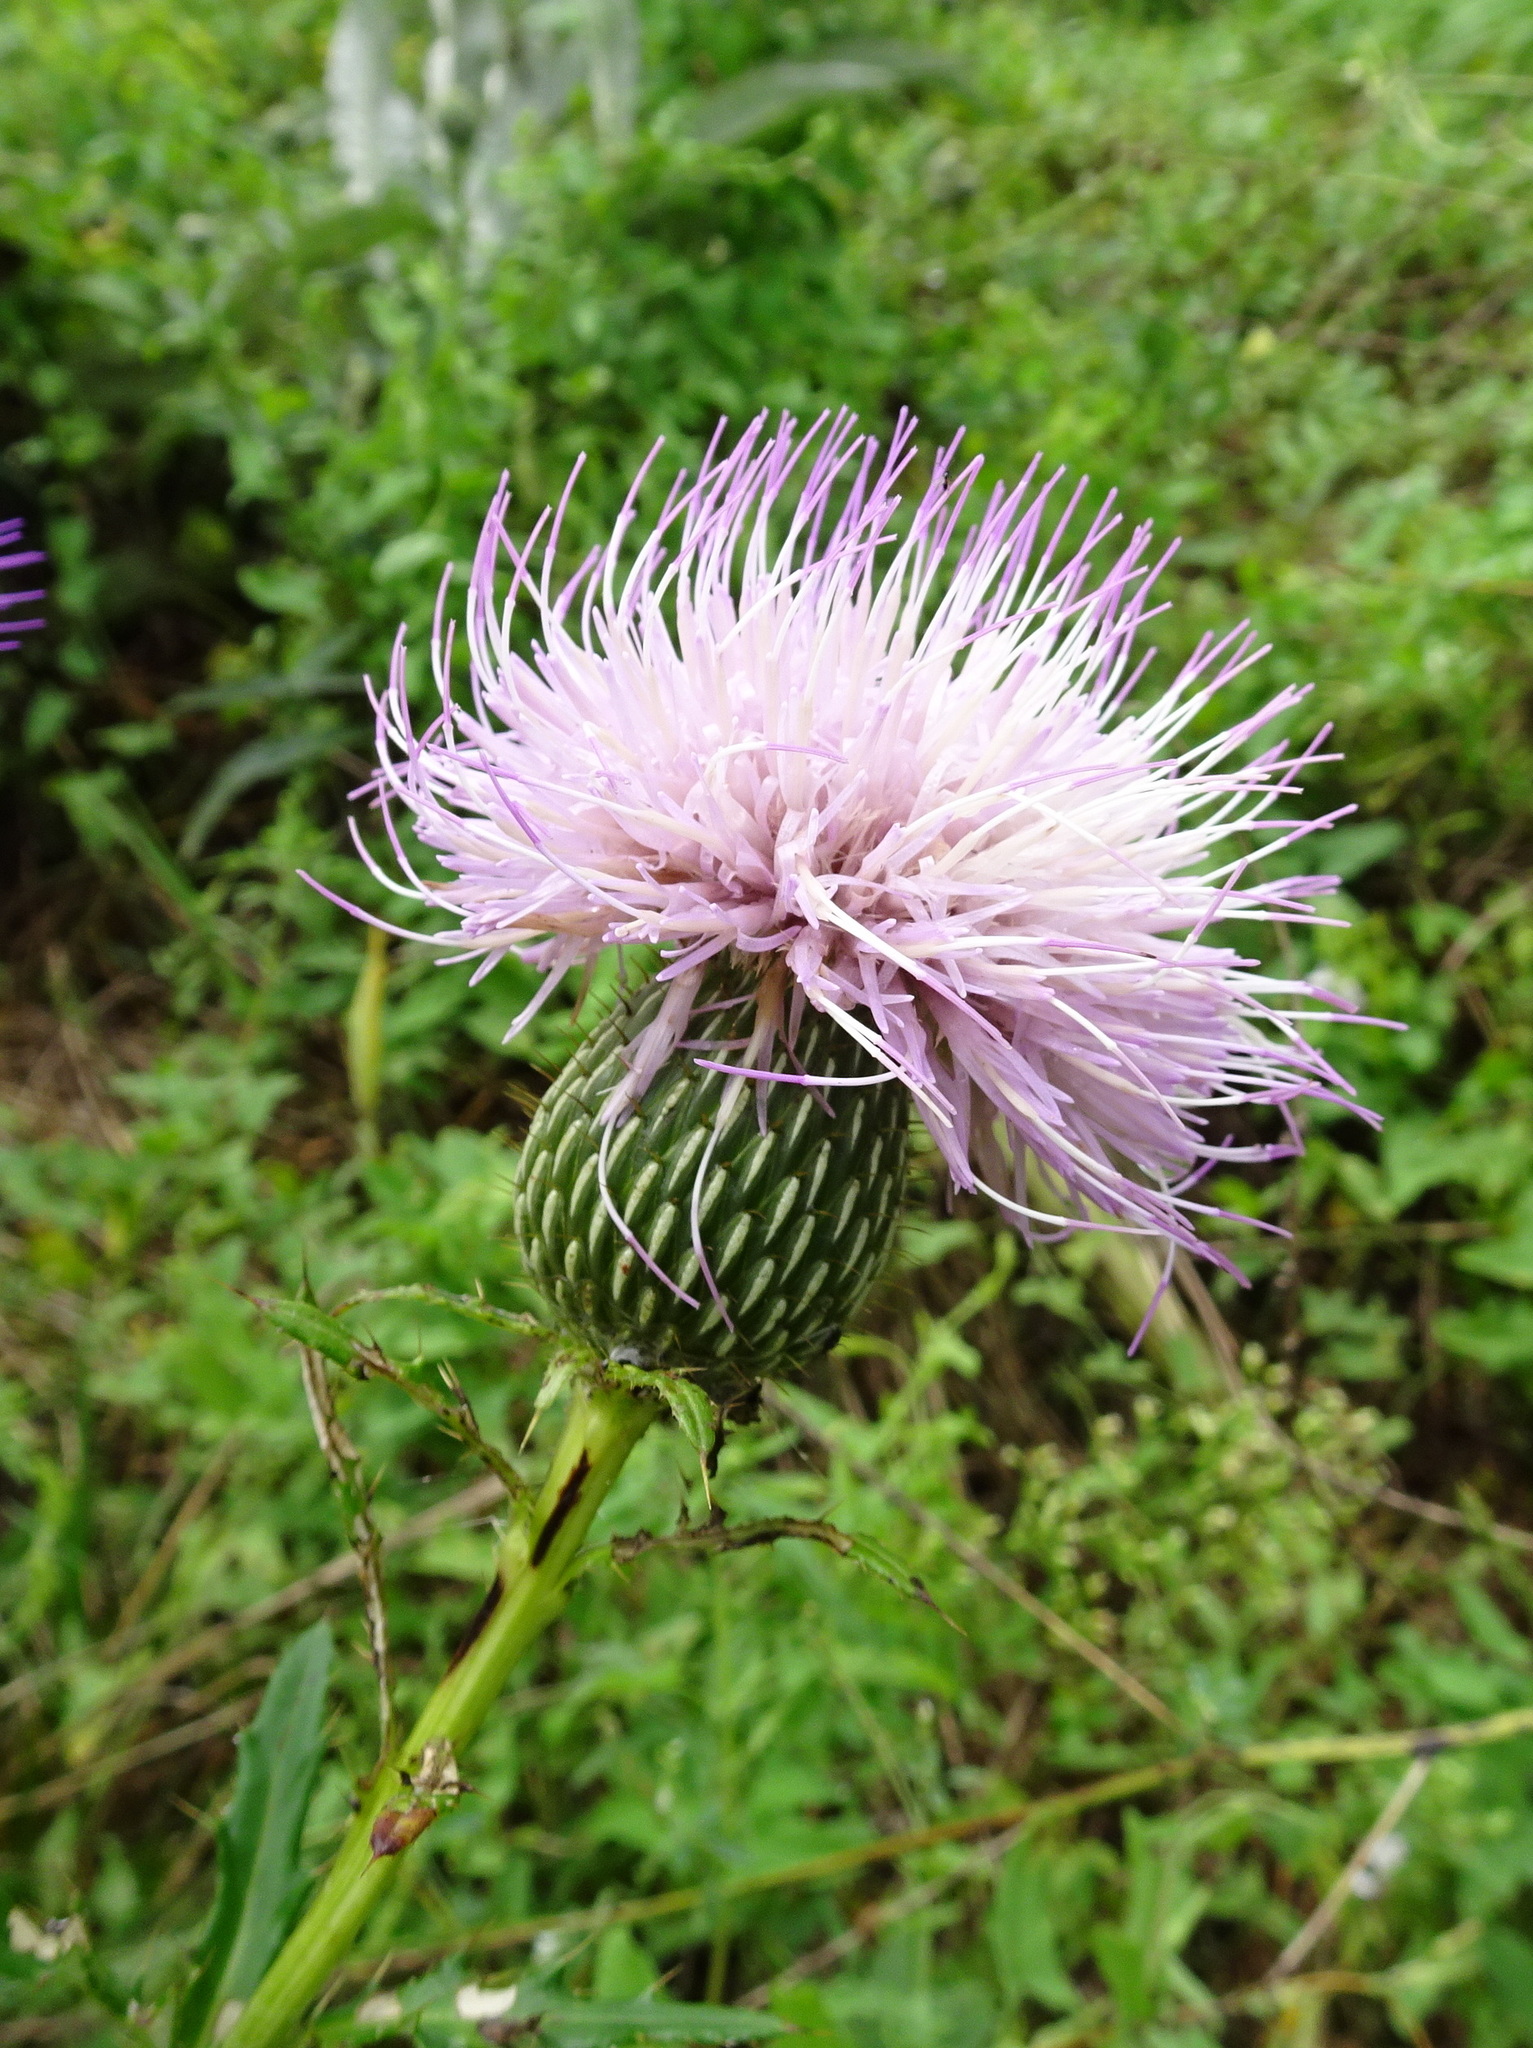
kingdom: Plantae
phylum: Tracheophyta
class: Magnoliopsida
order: Asterales
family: Asteraceae
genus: Cirsium
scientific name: Cirsium altissimum
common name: Roadside thistle
